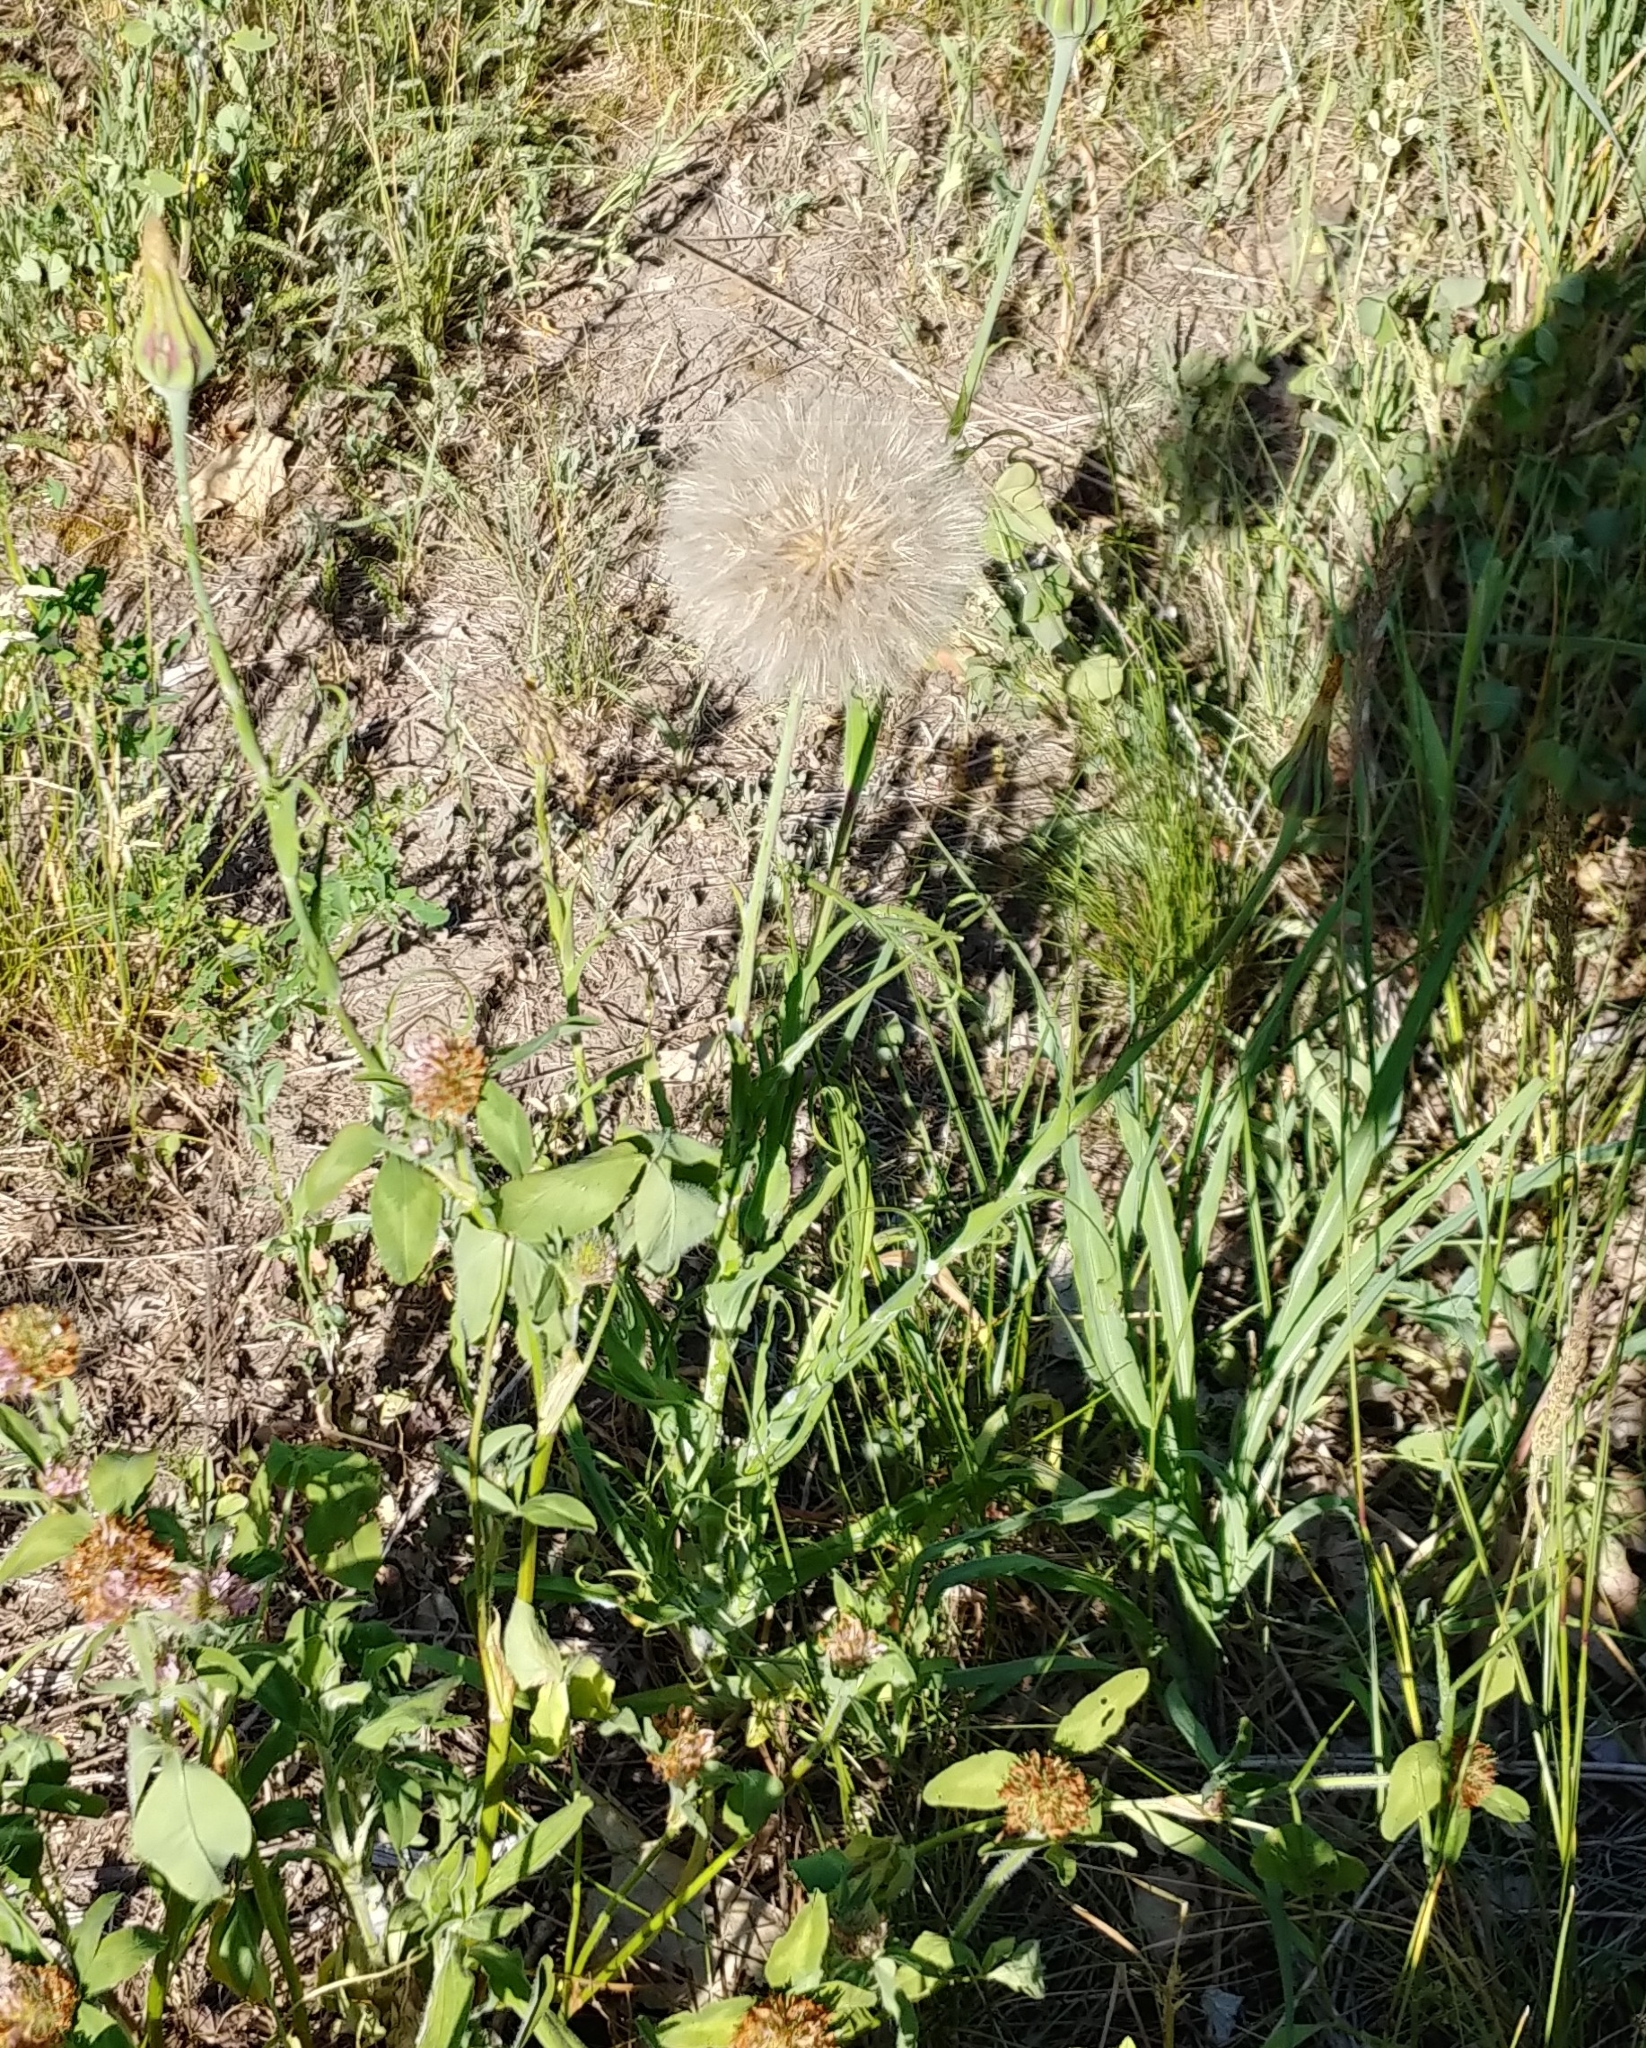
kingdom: Plantae
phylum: Tracheophyta
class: Magnoliopsida
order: Asterales
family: Asteraceae
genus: Tragopogon
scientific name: Tragopogon pratensis
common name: Goat's-beard
